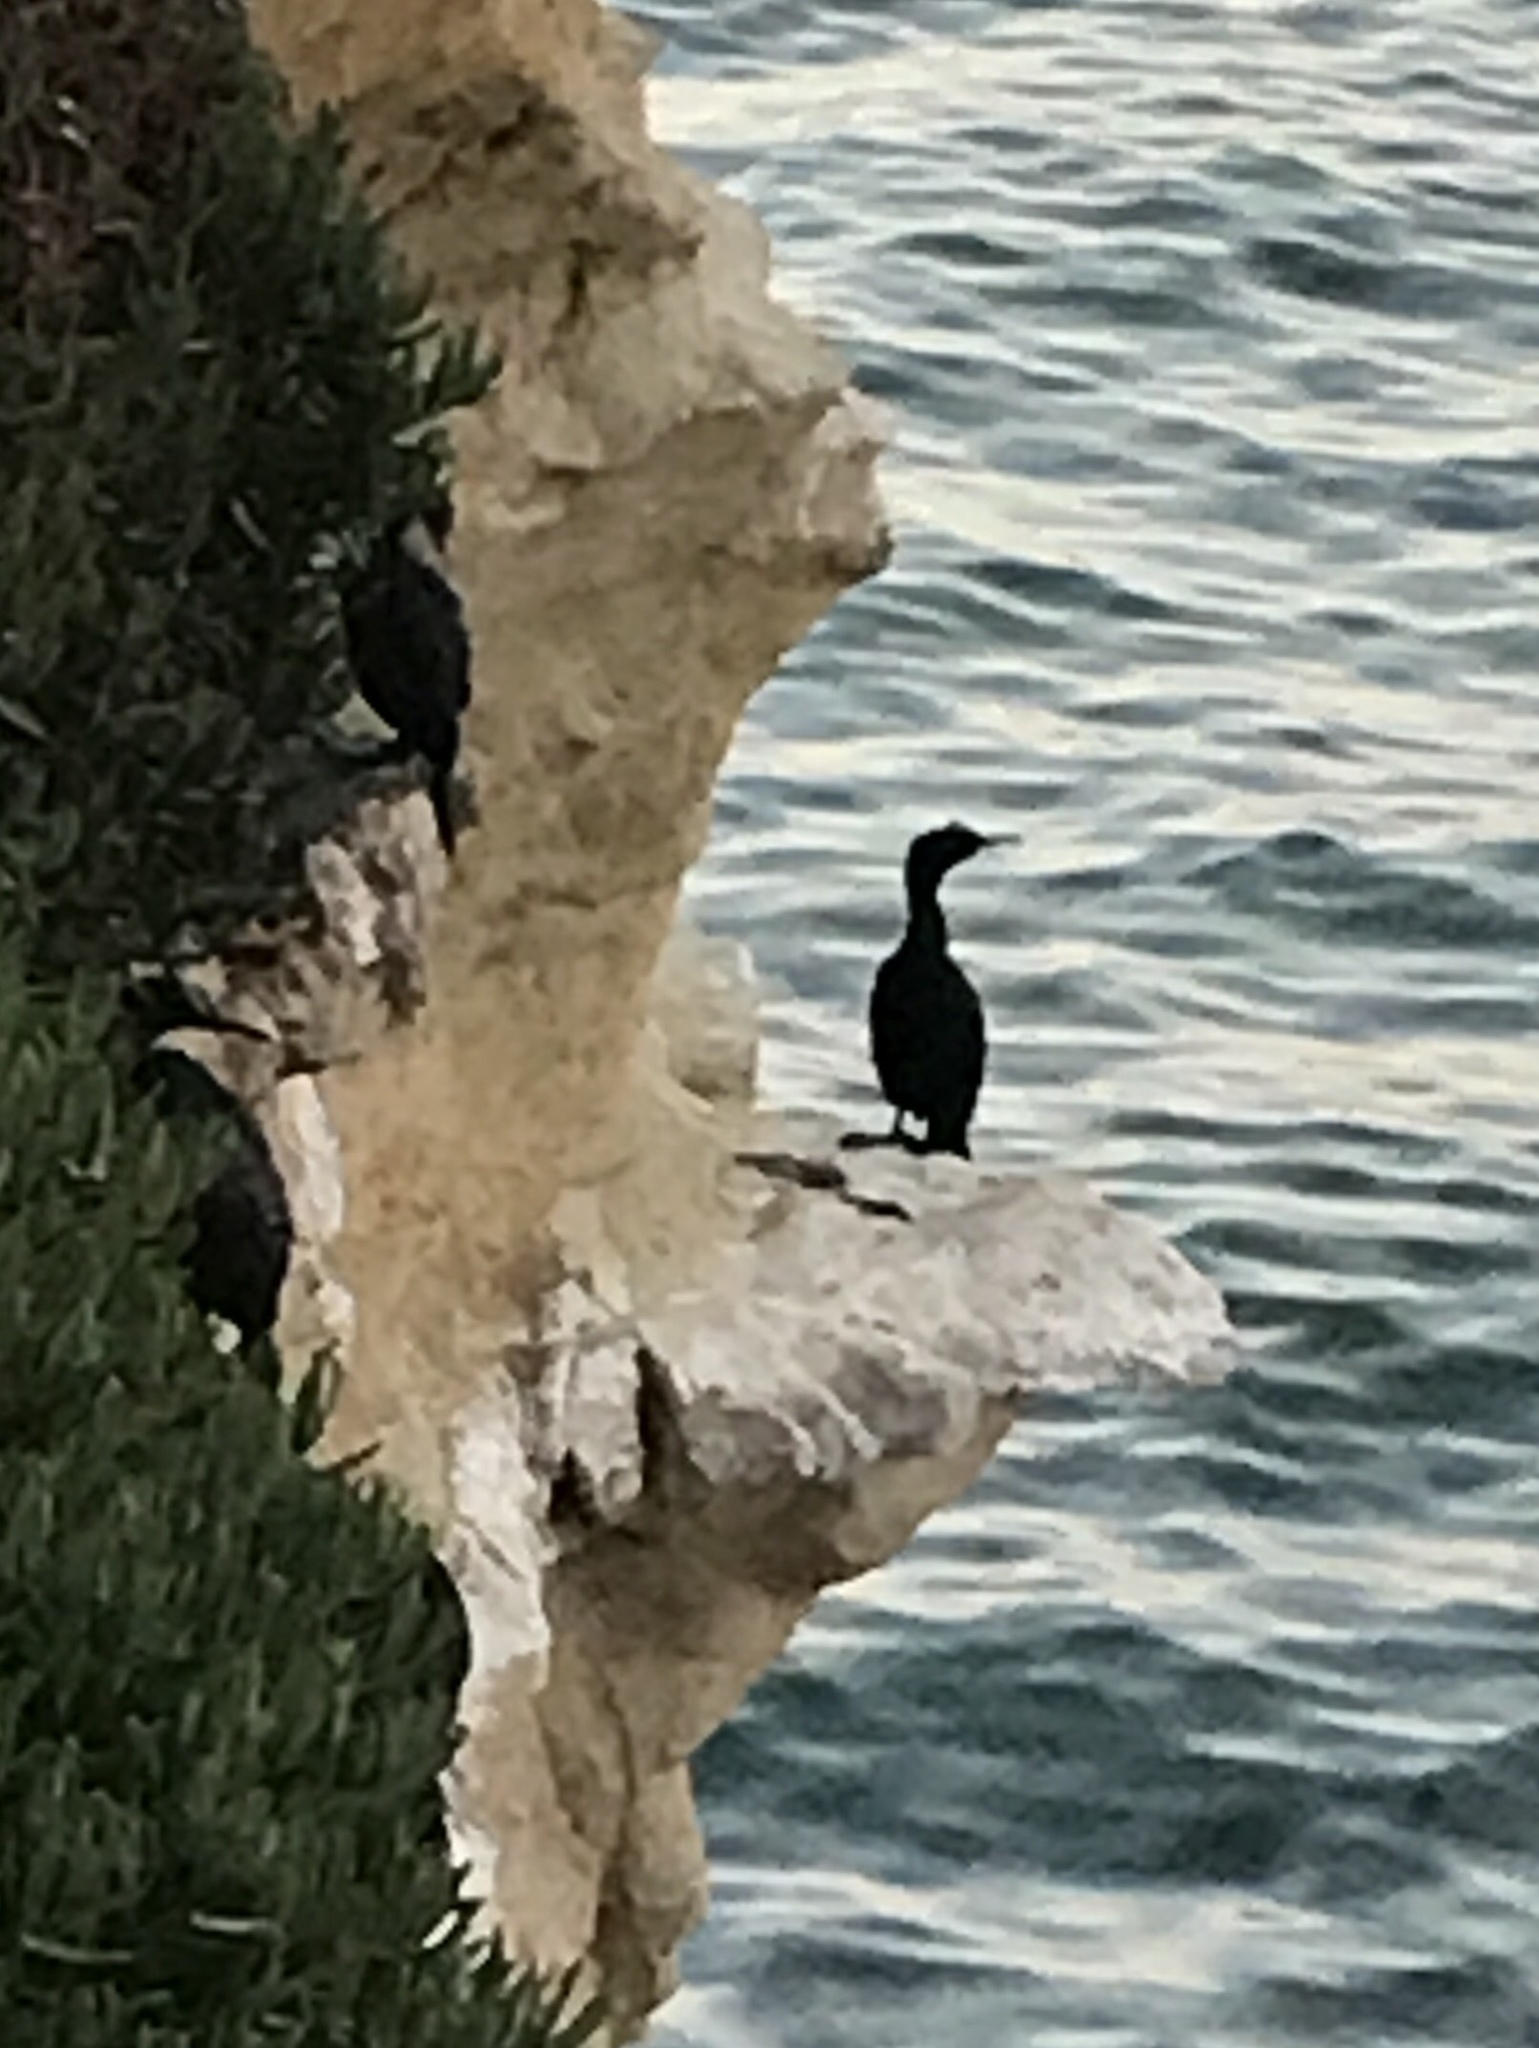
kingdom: Animalia
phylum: Chordata
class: Aves
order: Suliformes
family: Phalacrocoracidae
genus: Phalacrocorax
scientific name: Phalacrocorax pelagicus
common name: Pelagic cormorant
